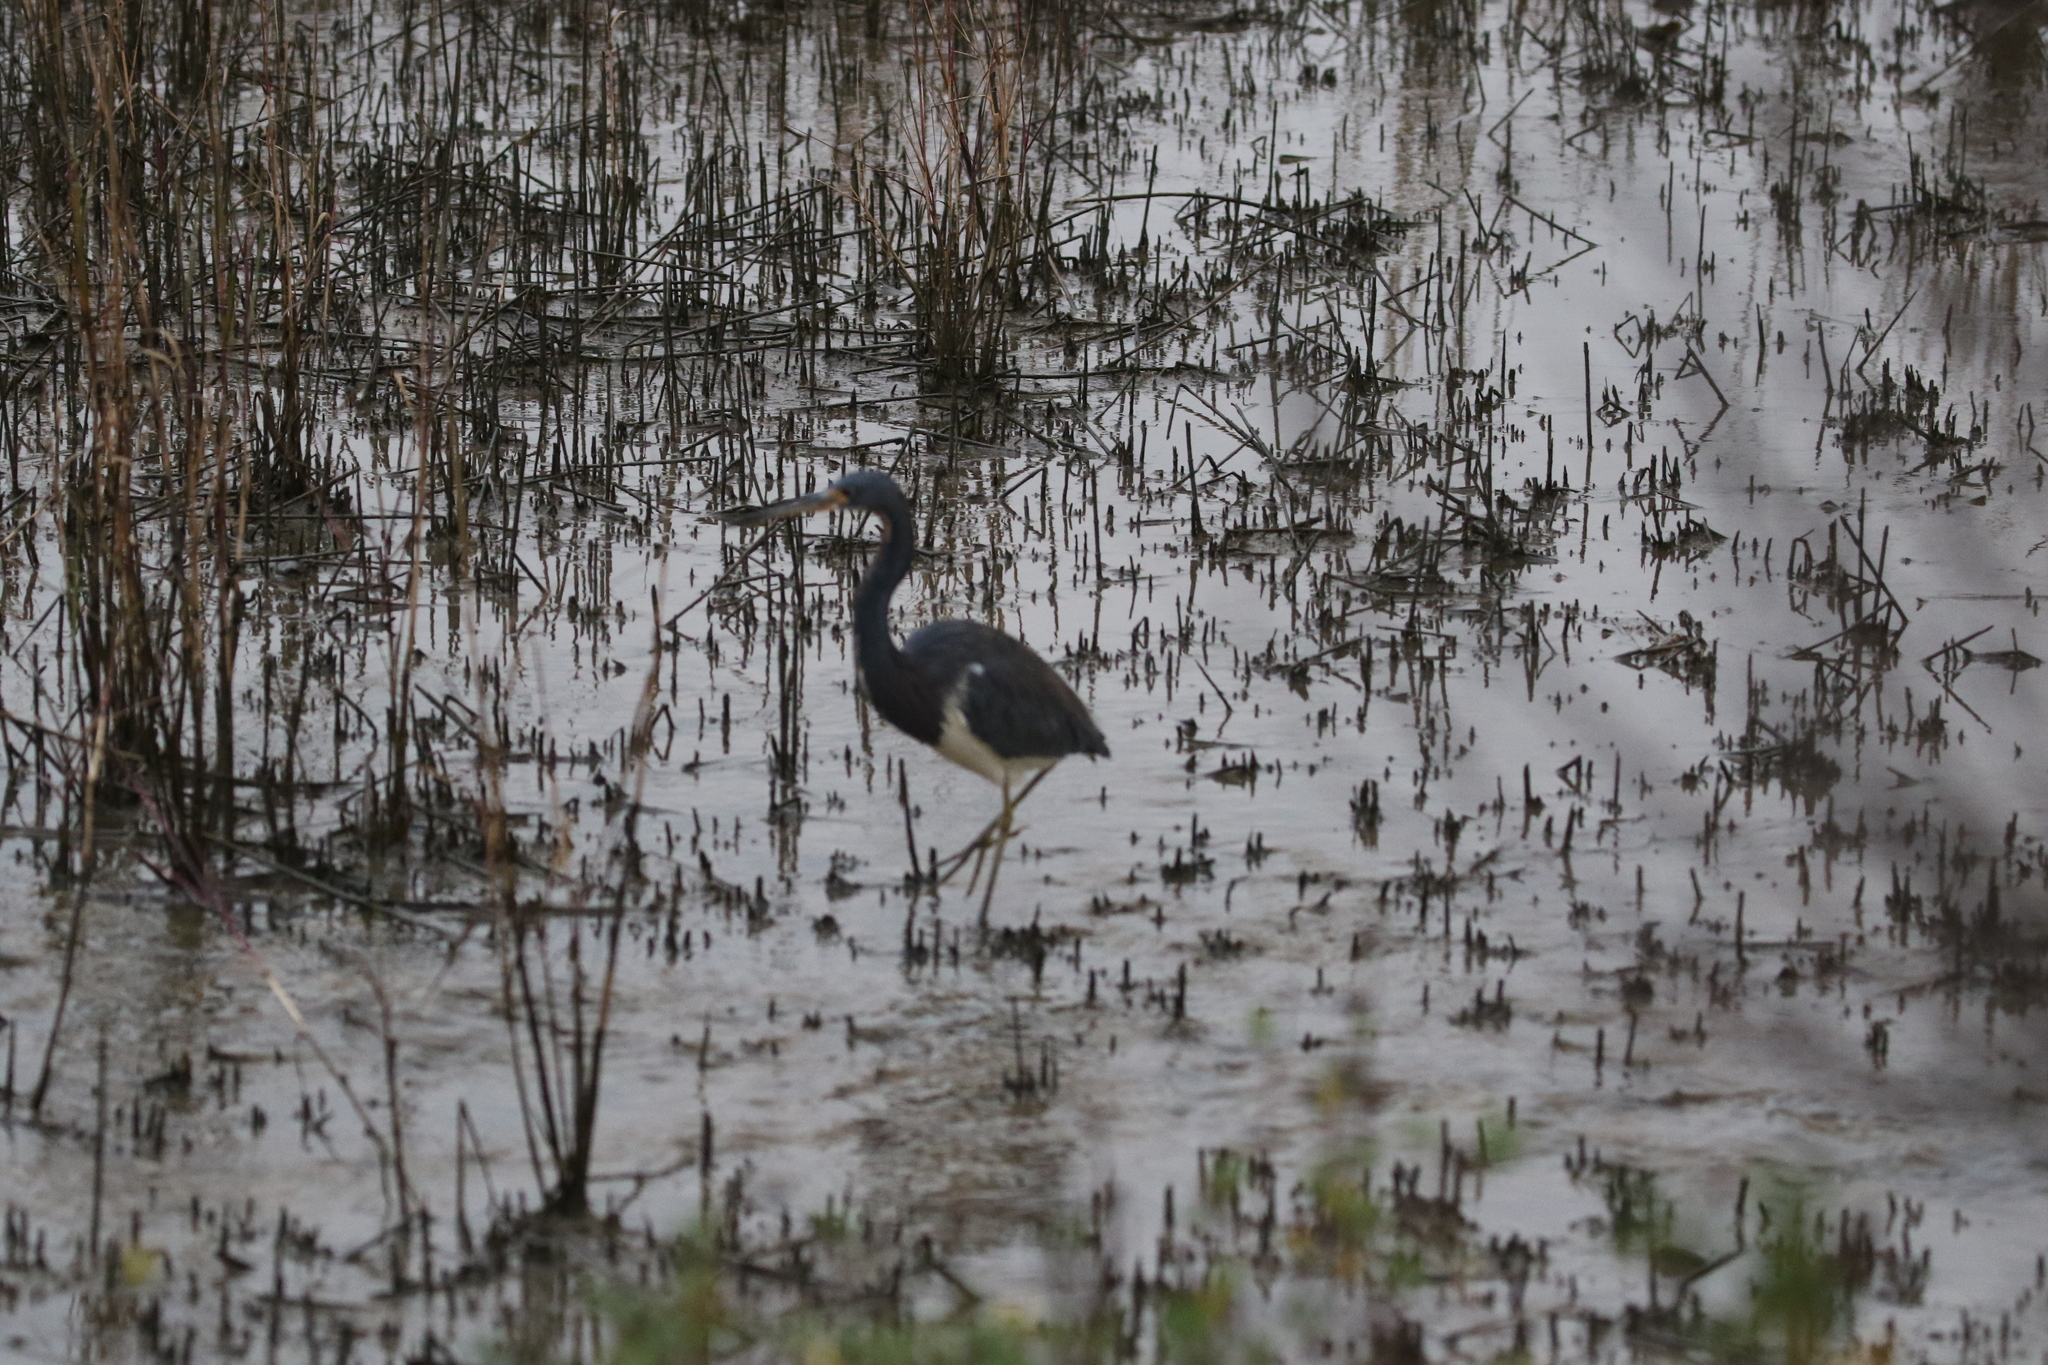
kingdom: Animalia
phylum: Chordata
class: Aves
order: Pelecaniformes
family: Ardeidae
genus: Egretta
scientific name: Egretta tricolor
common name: Tricolored heron
